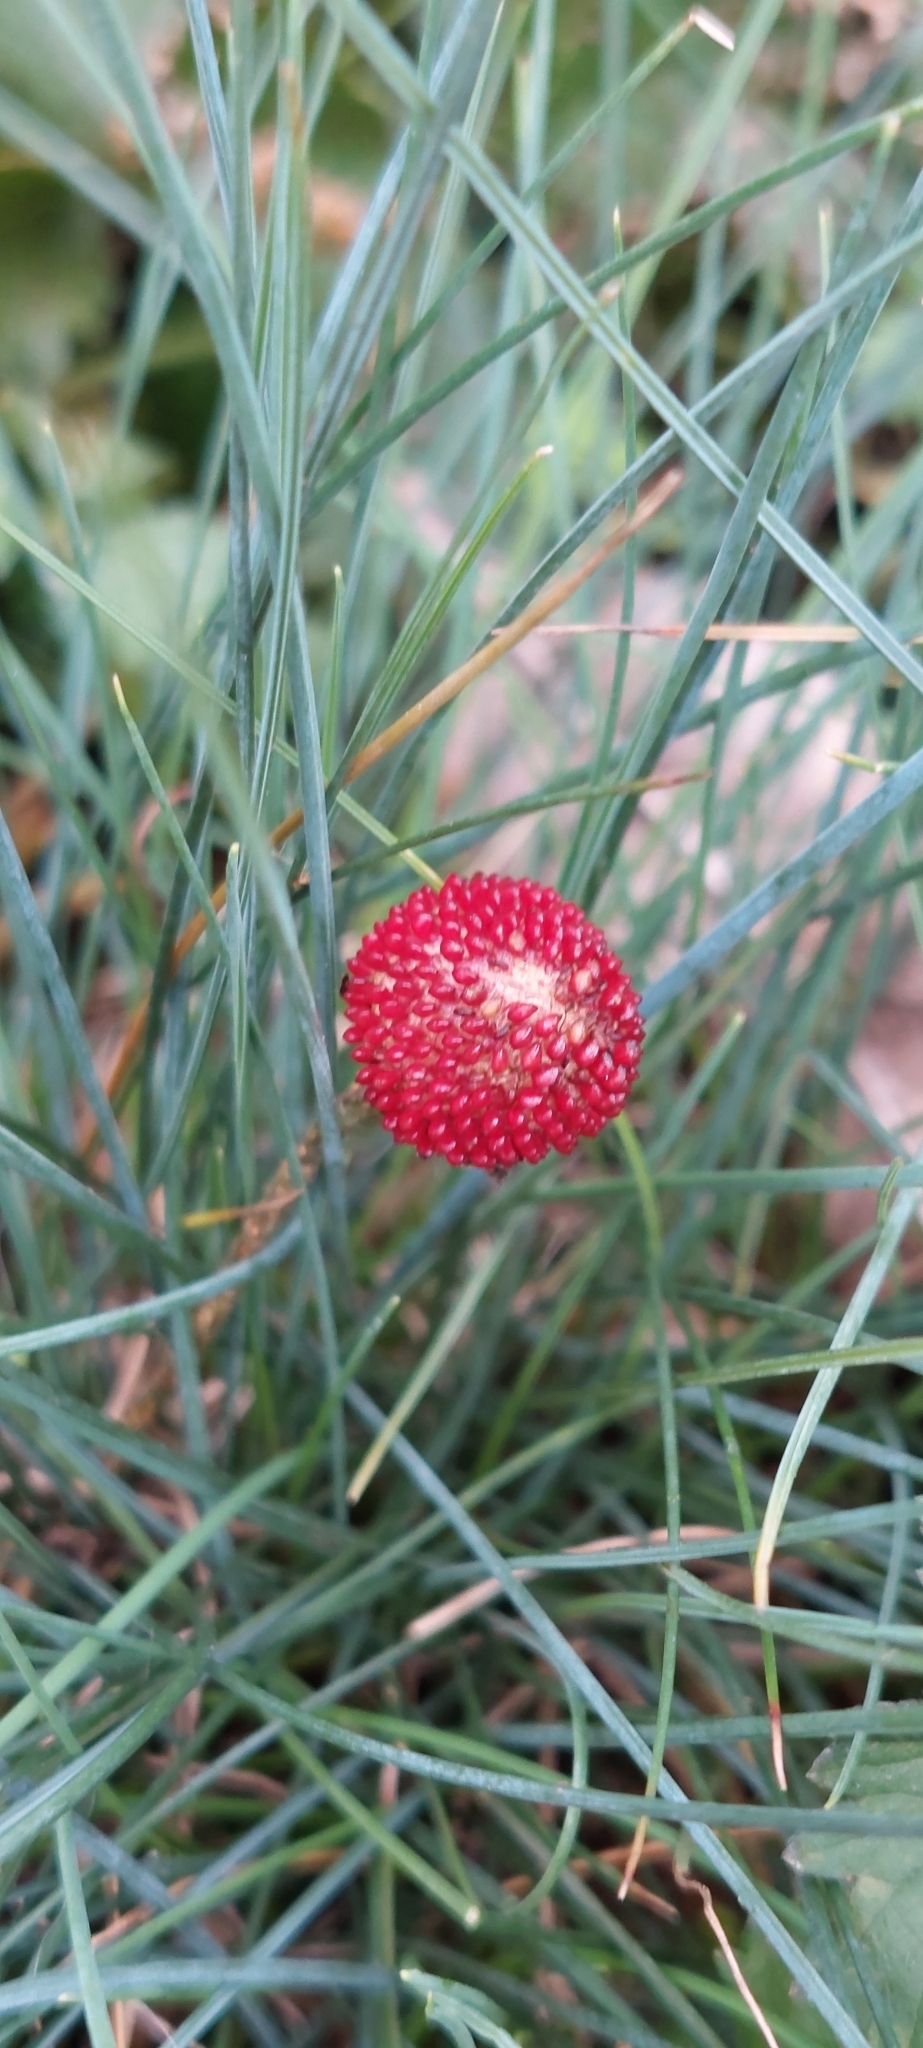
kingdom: Plantae
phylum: Tracheophyta
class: Magnoliopsida
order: Rosales
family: Rosaceae
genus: Potentilla
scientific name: Potentilla indica
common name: Yellow-flowered strawberry
